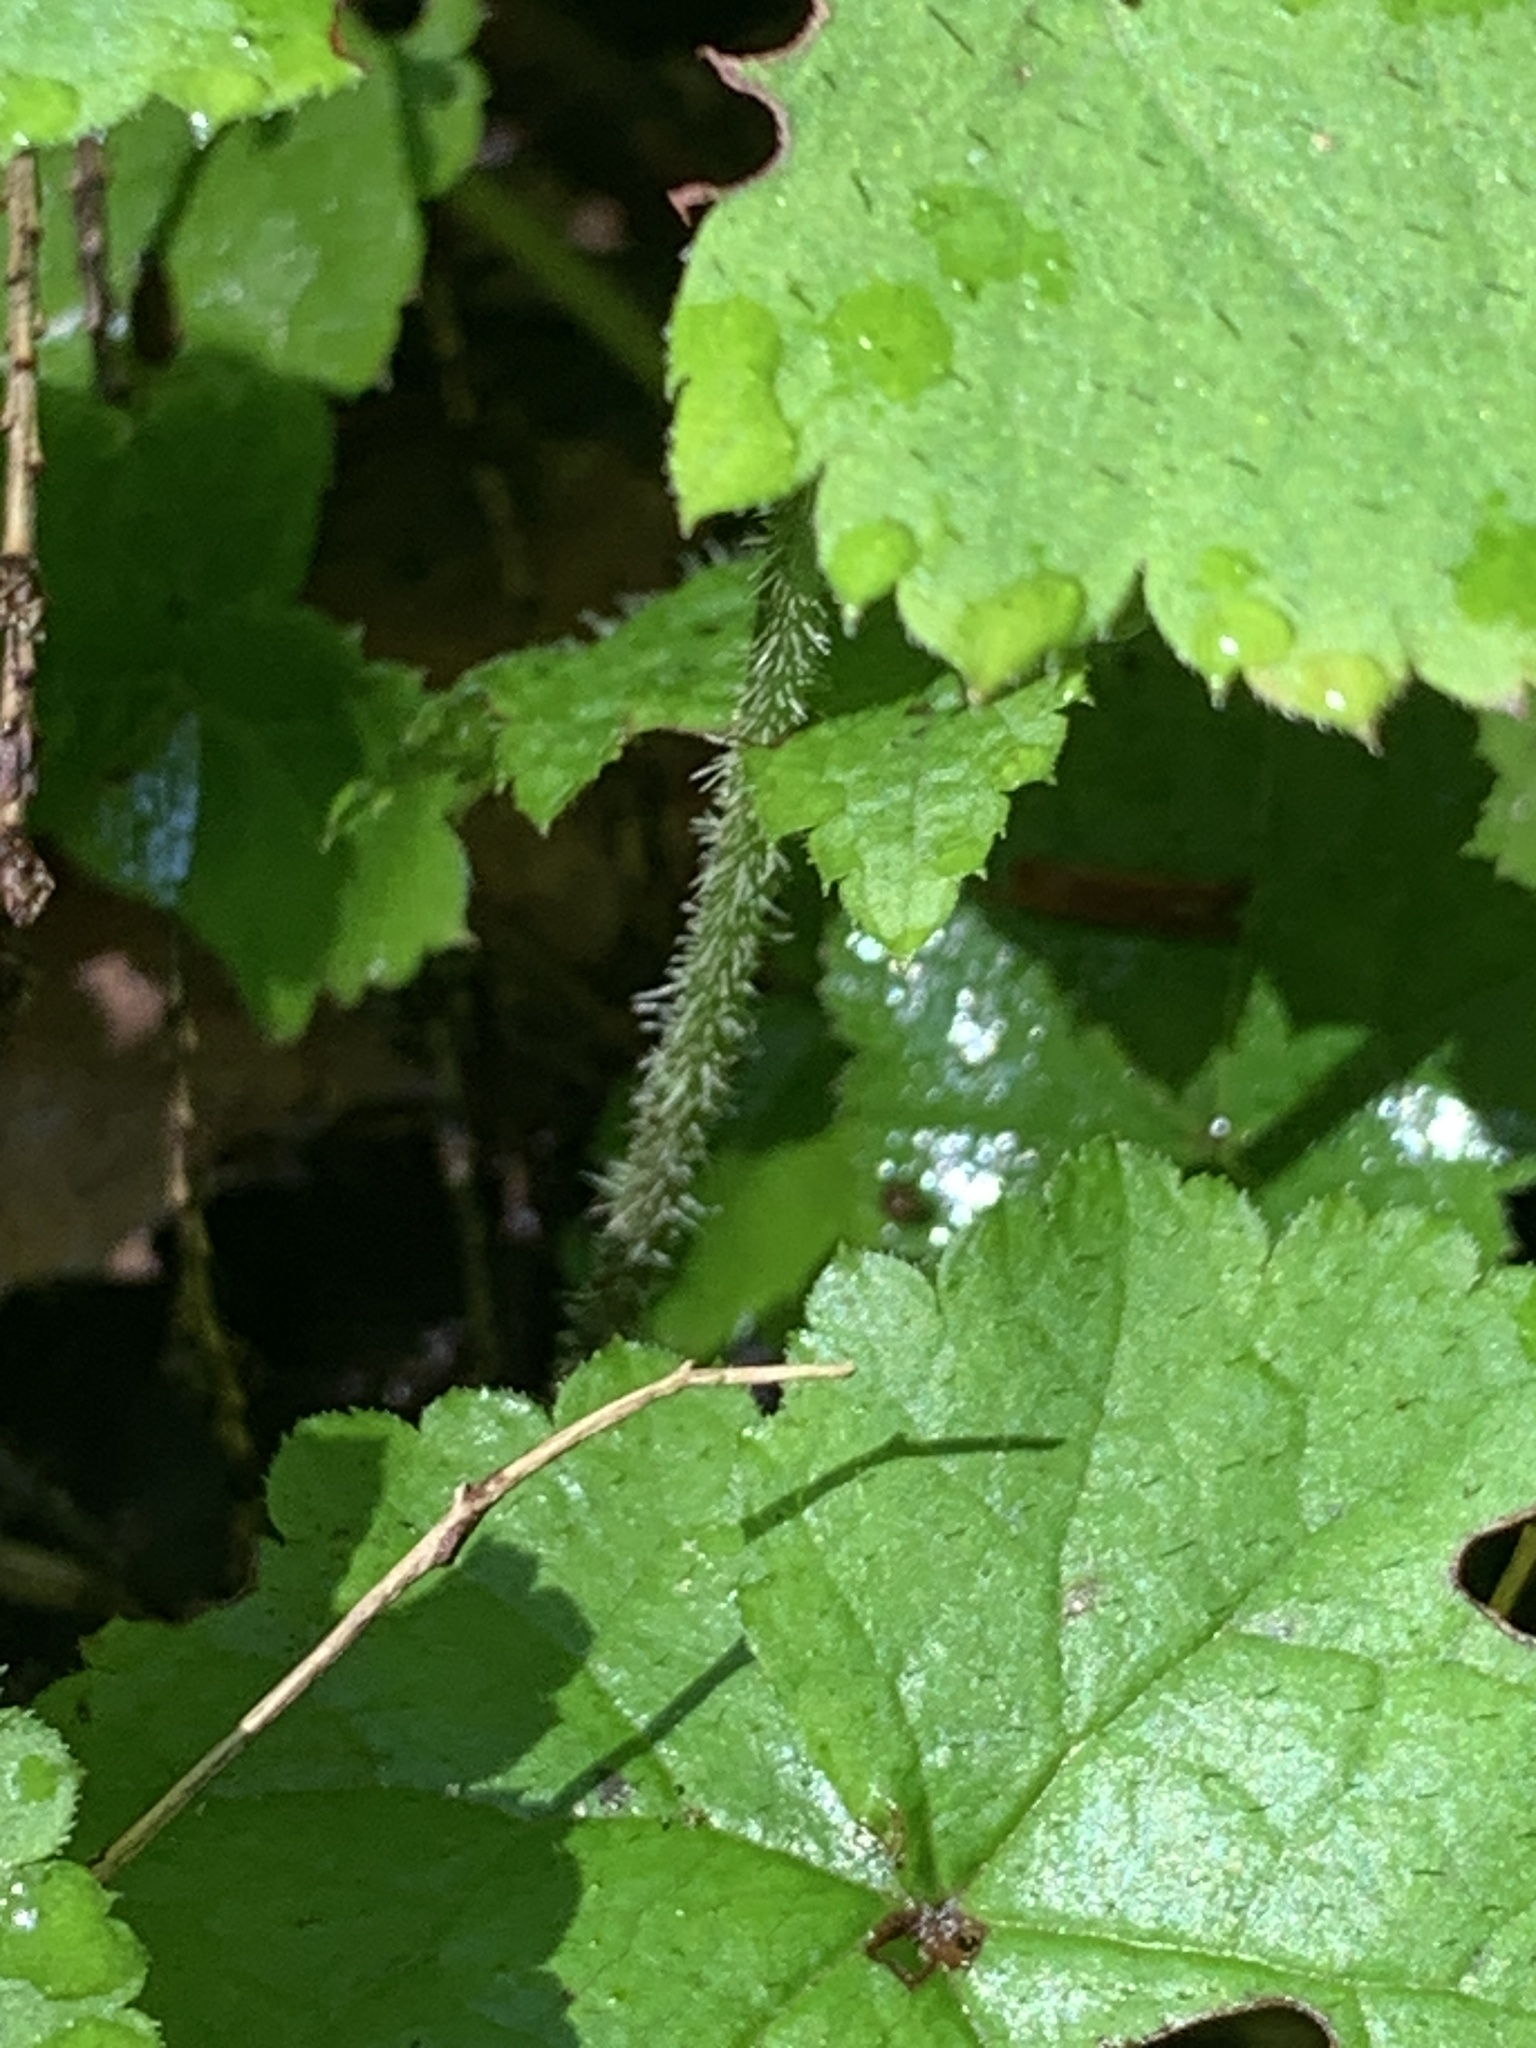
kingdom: Plantae
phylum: Tracheophyta
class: Magnoliopsida
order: Saxifragales
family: Saxifragaceae
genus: Tiarella
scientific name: Tiarella stolonifera
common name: Stoloniferous foamflower
